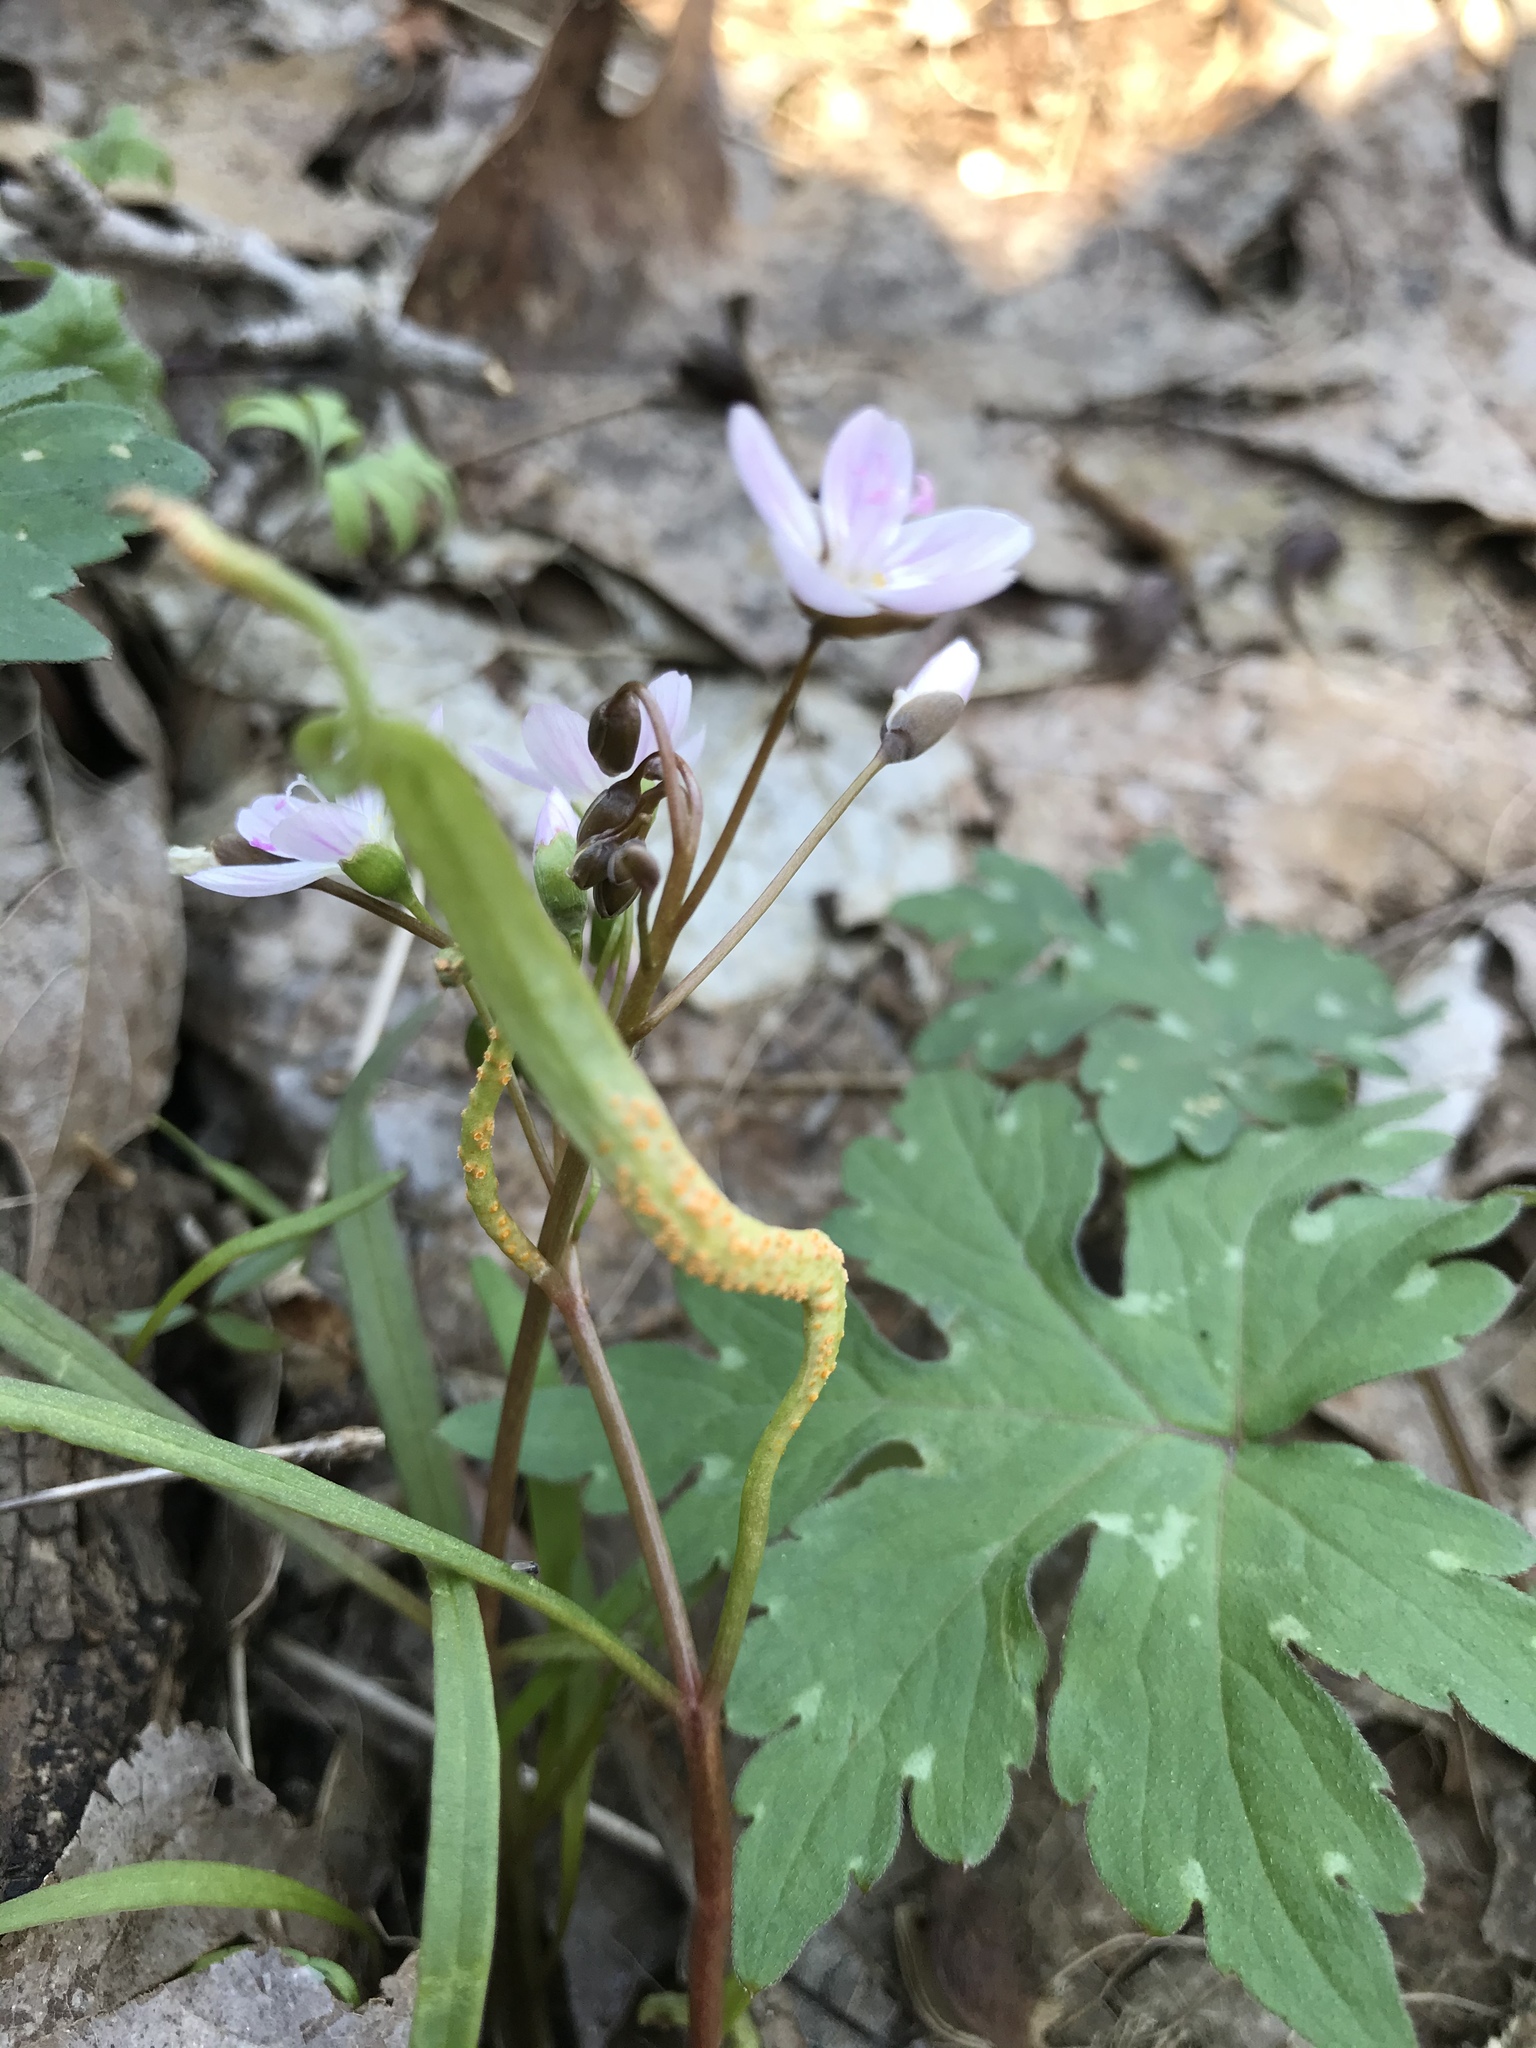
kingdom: Fungi
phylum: Basidiomycota
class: Pucciniomycetes
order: Pucciniales
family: Pucciniaceae
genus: Puccinia
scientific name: Puccinia mariae-wilsoniae
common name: Spring beauty rust
